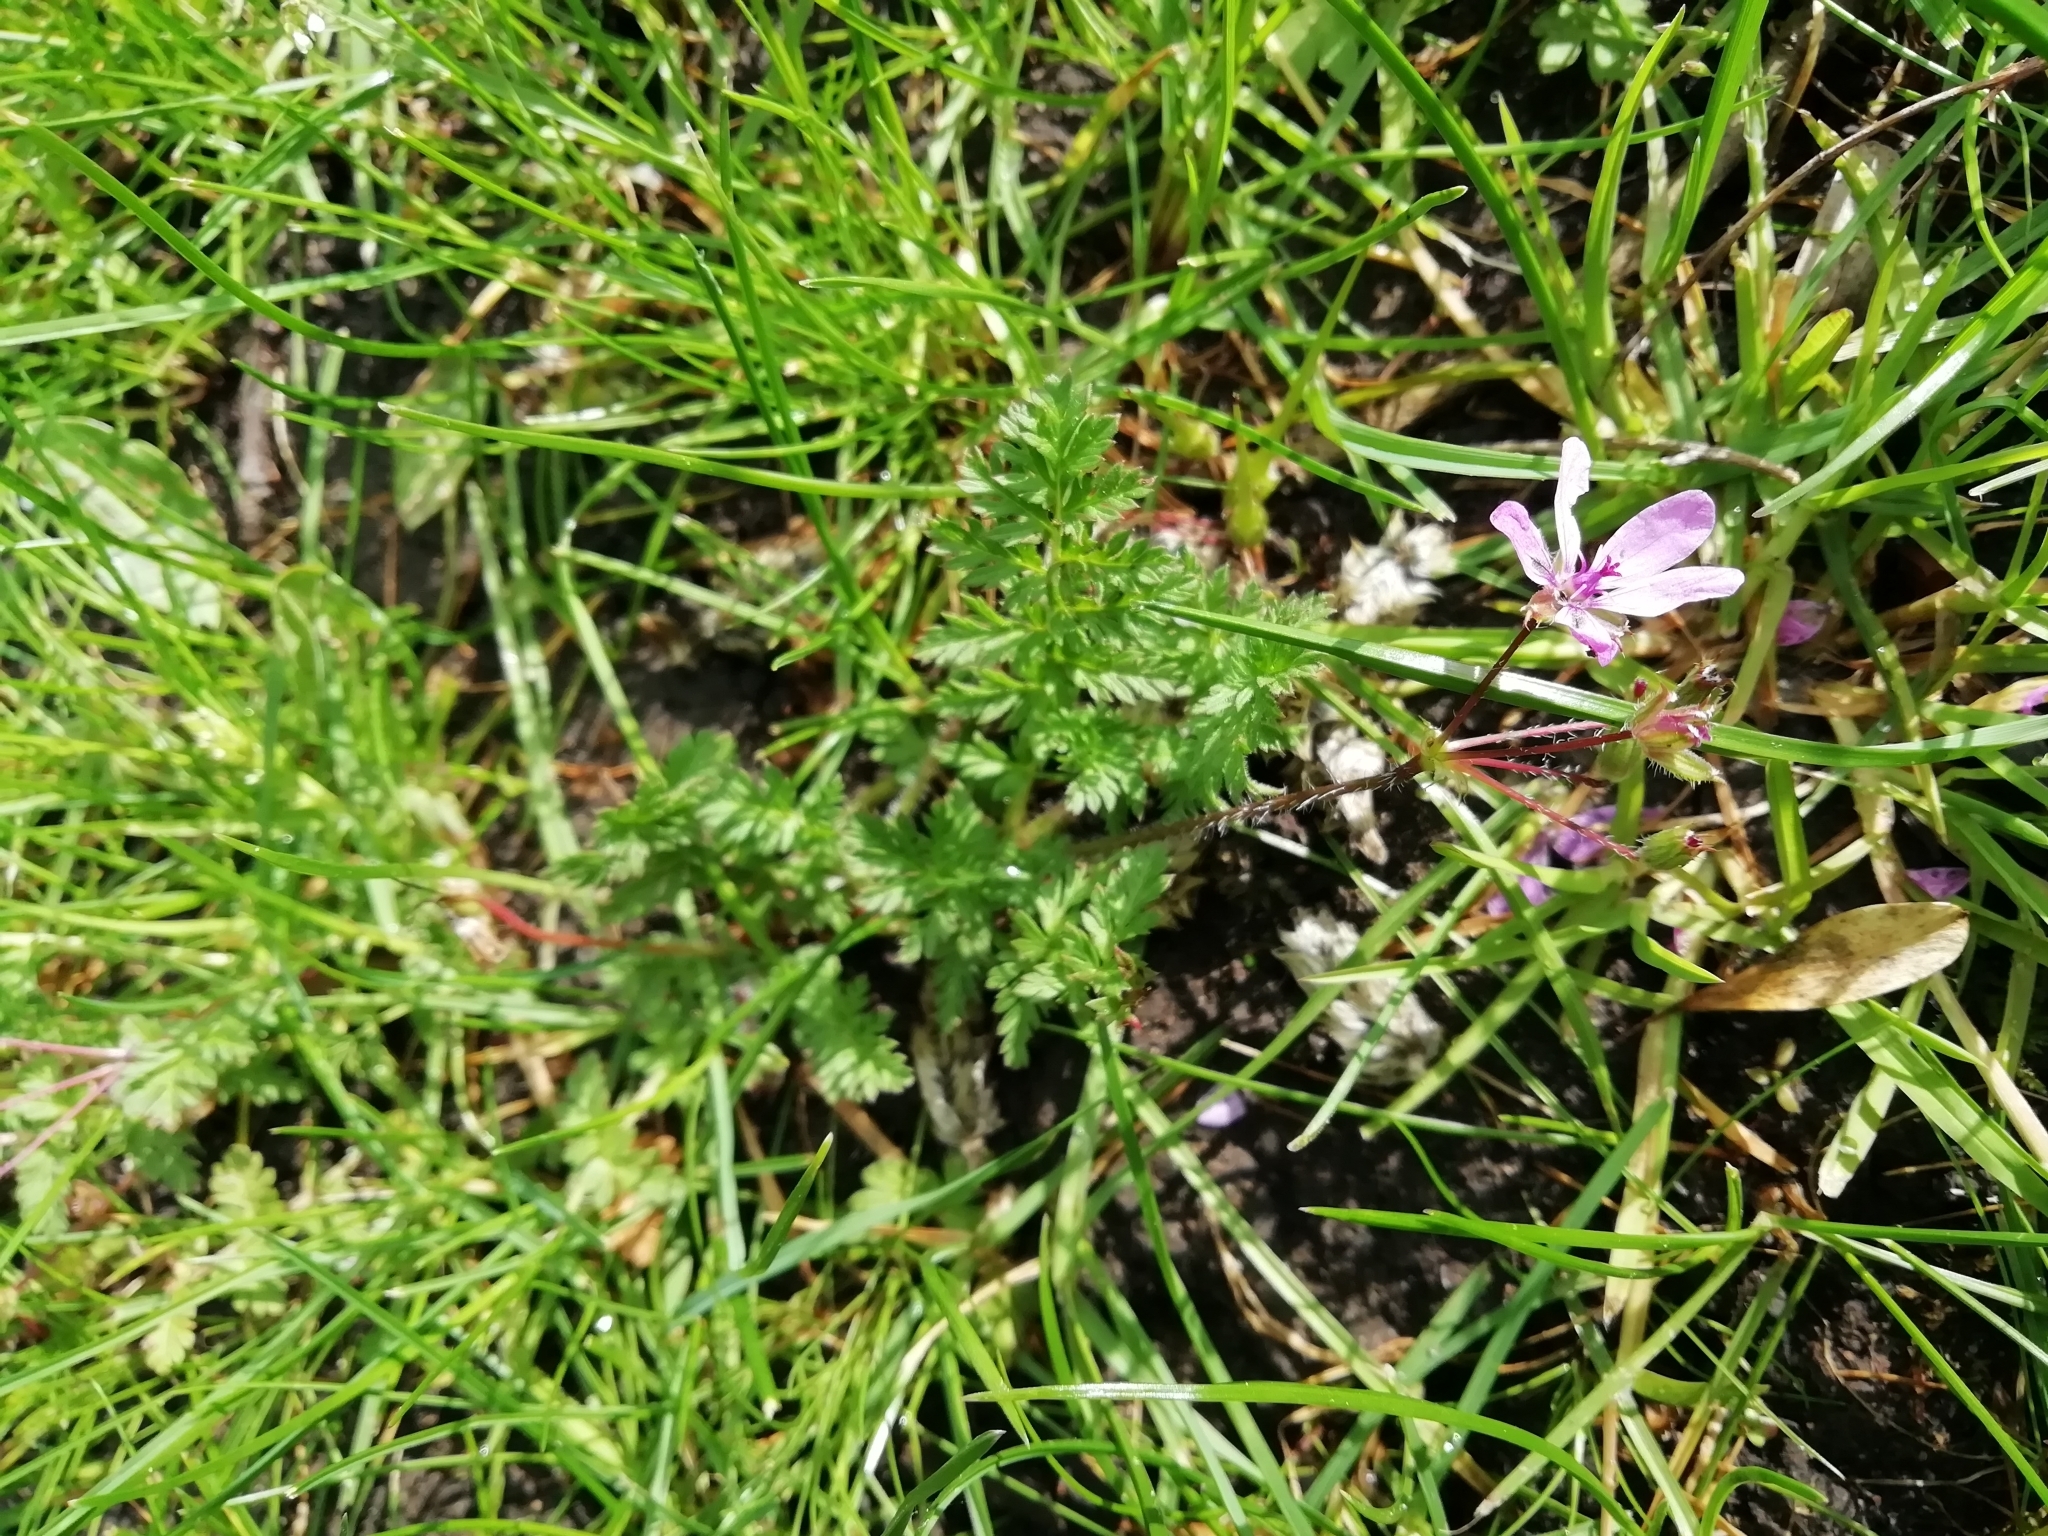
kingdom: Plantae
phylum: Tracheophyta
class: Magnoliopsida
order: Geraniales
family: Geraniaceae
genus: Erodium
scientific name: Erodium cicutarium
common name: Common stork's-bill
